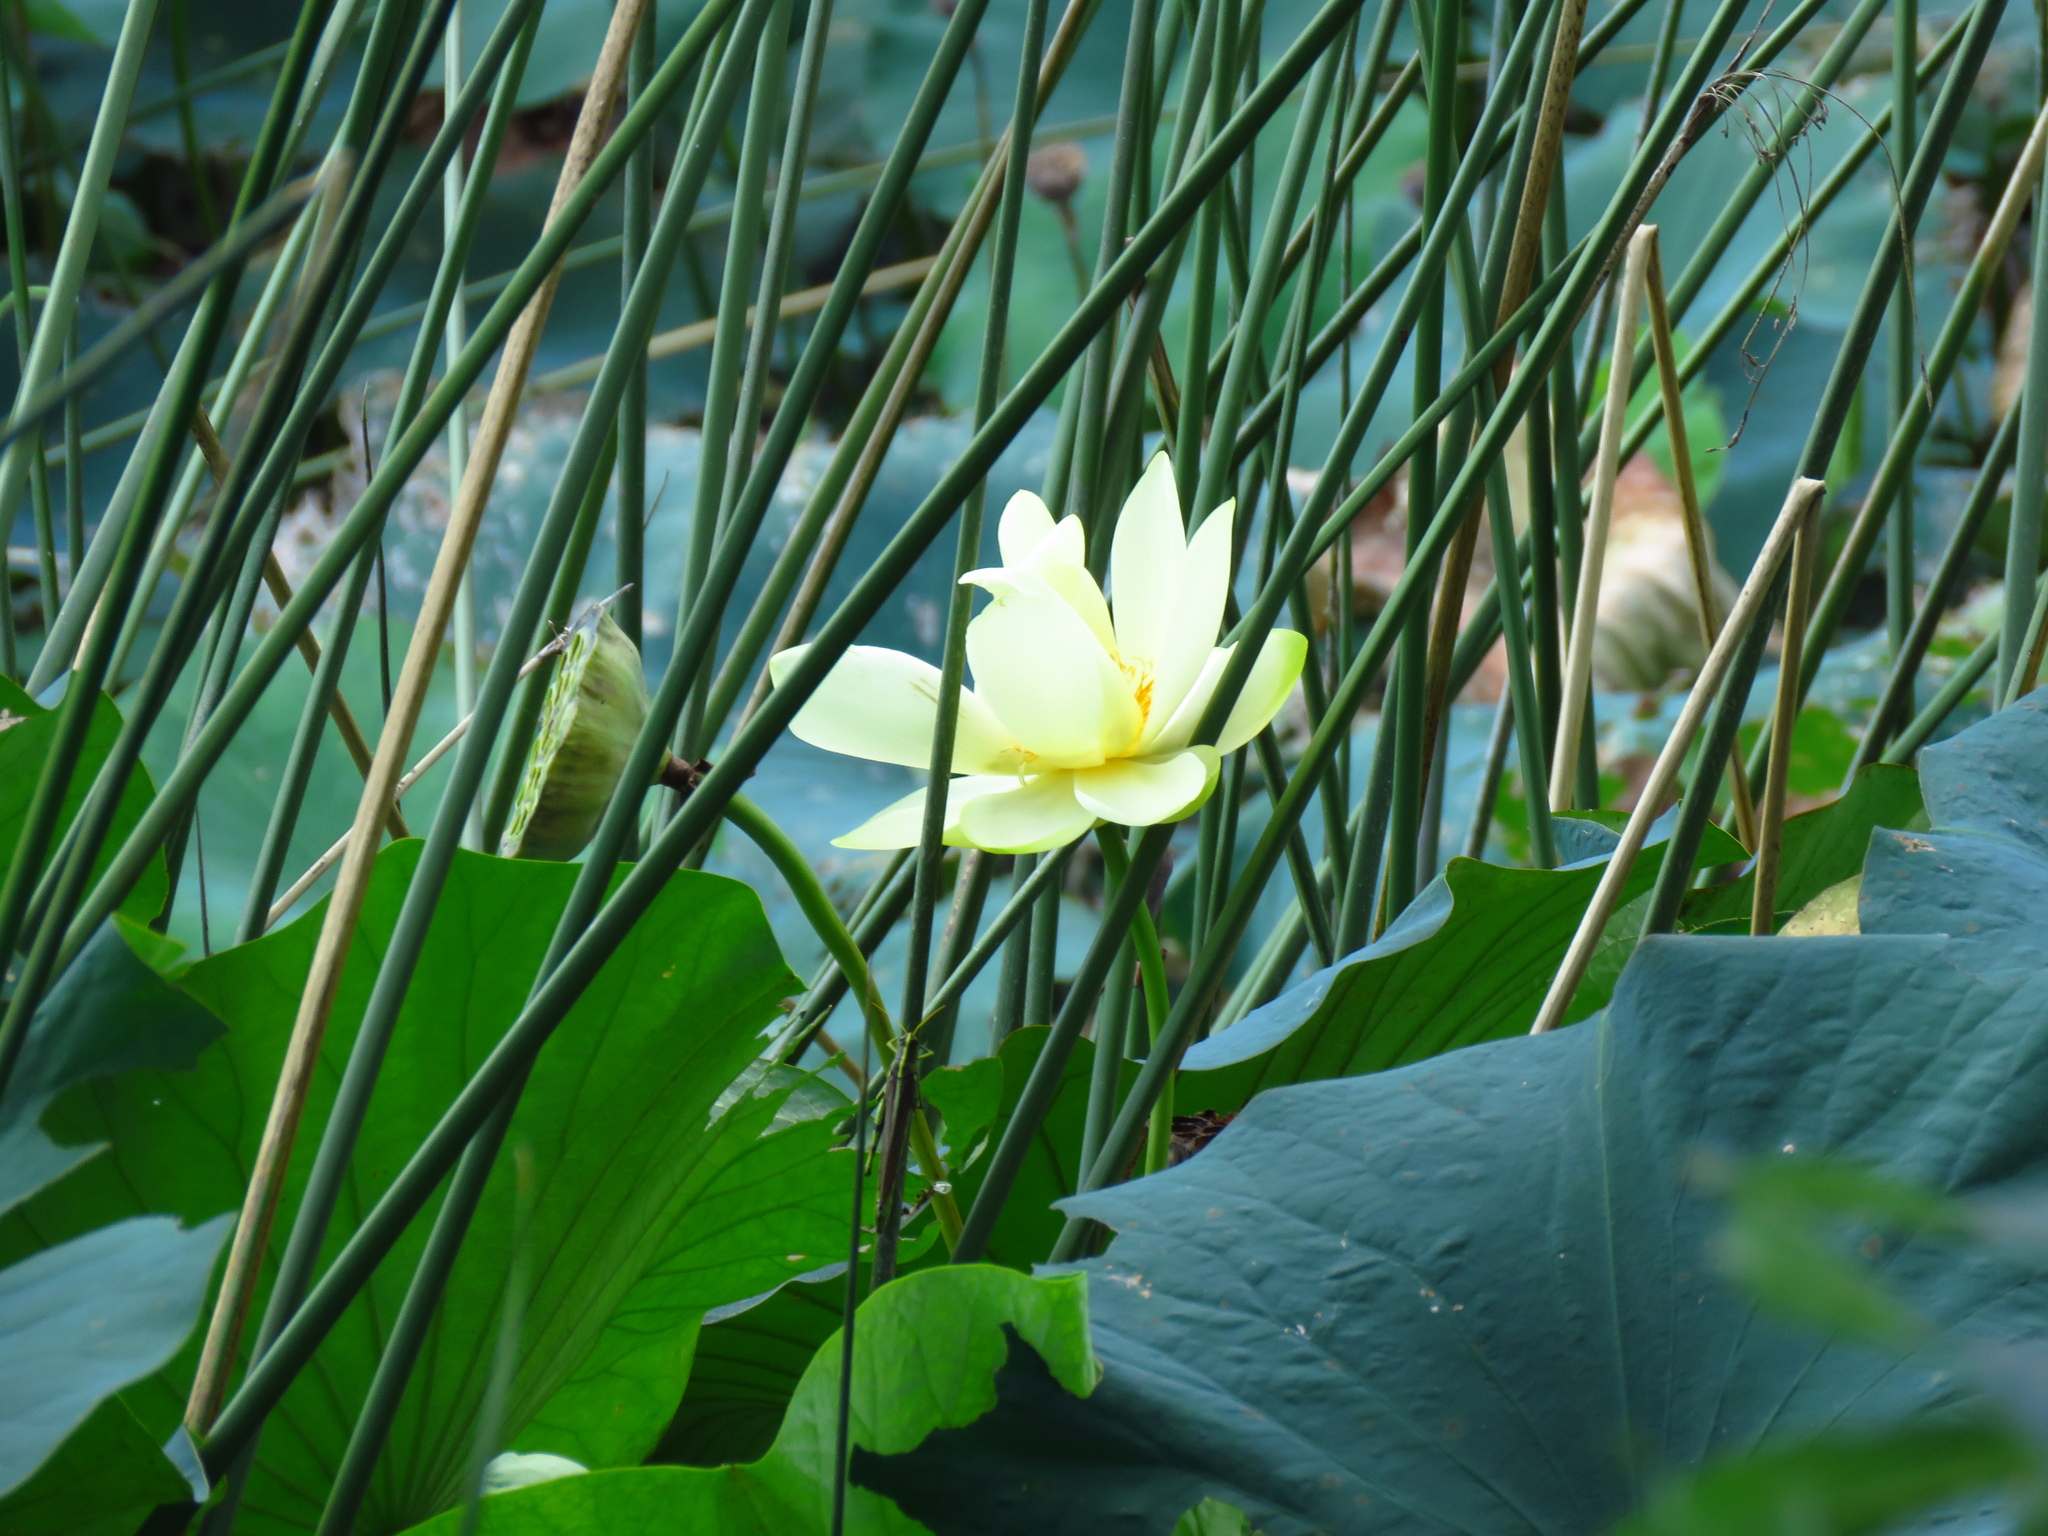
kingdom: Plantae
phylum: Tracheophyta
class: Magnoliopsida
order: Proteales
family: Nelumbonaceae
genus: Nelumbo
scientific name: Nelumbo lutea
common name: American lotus
